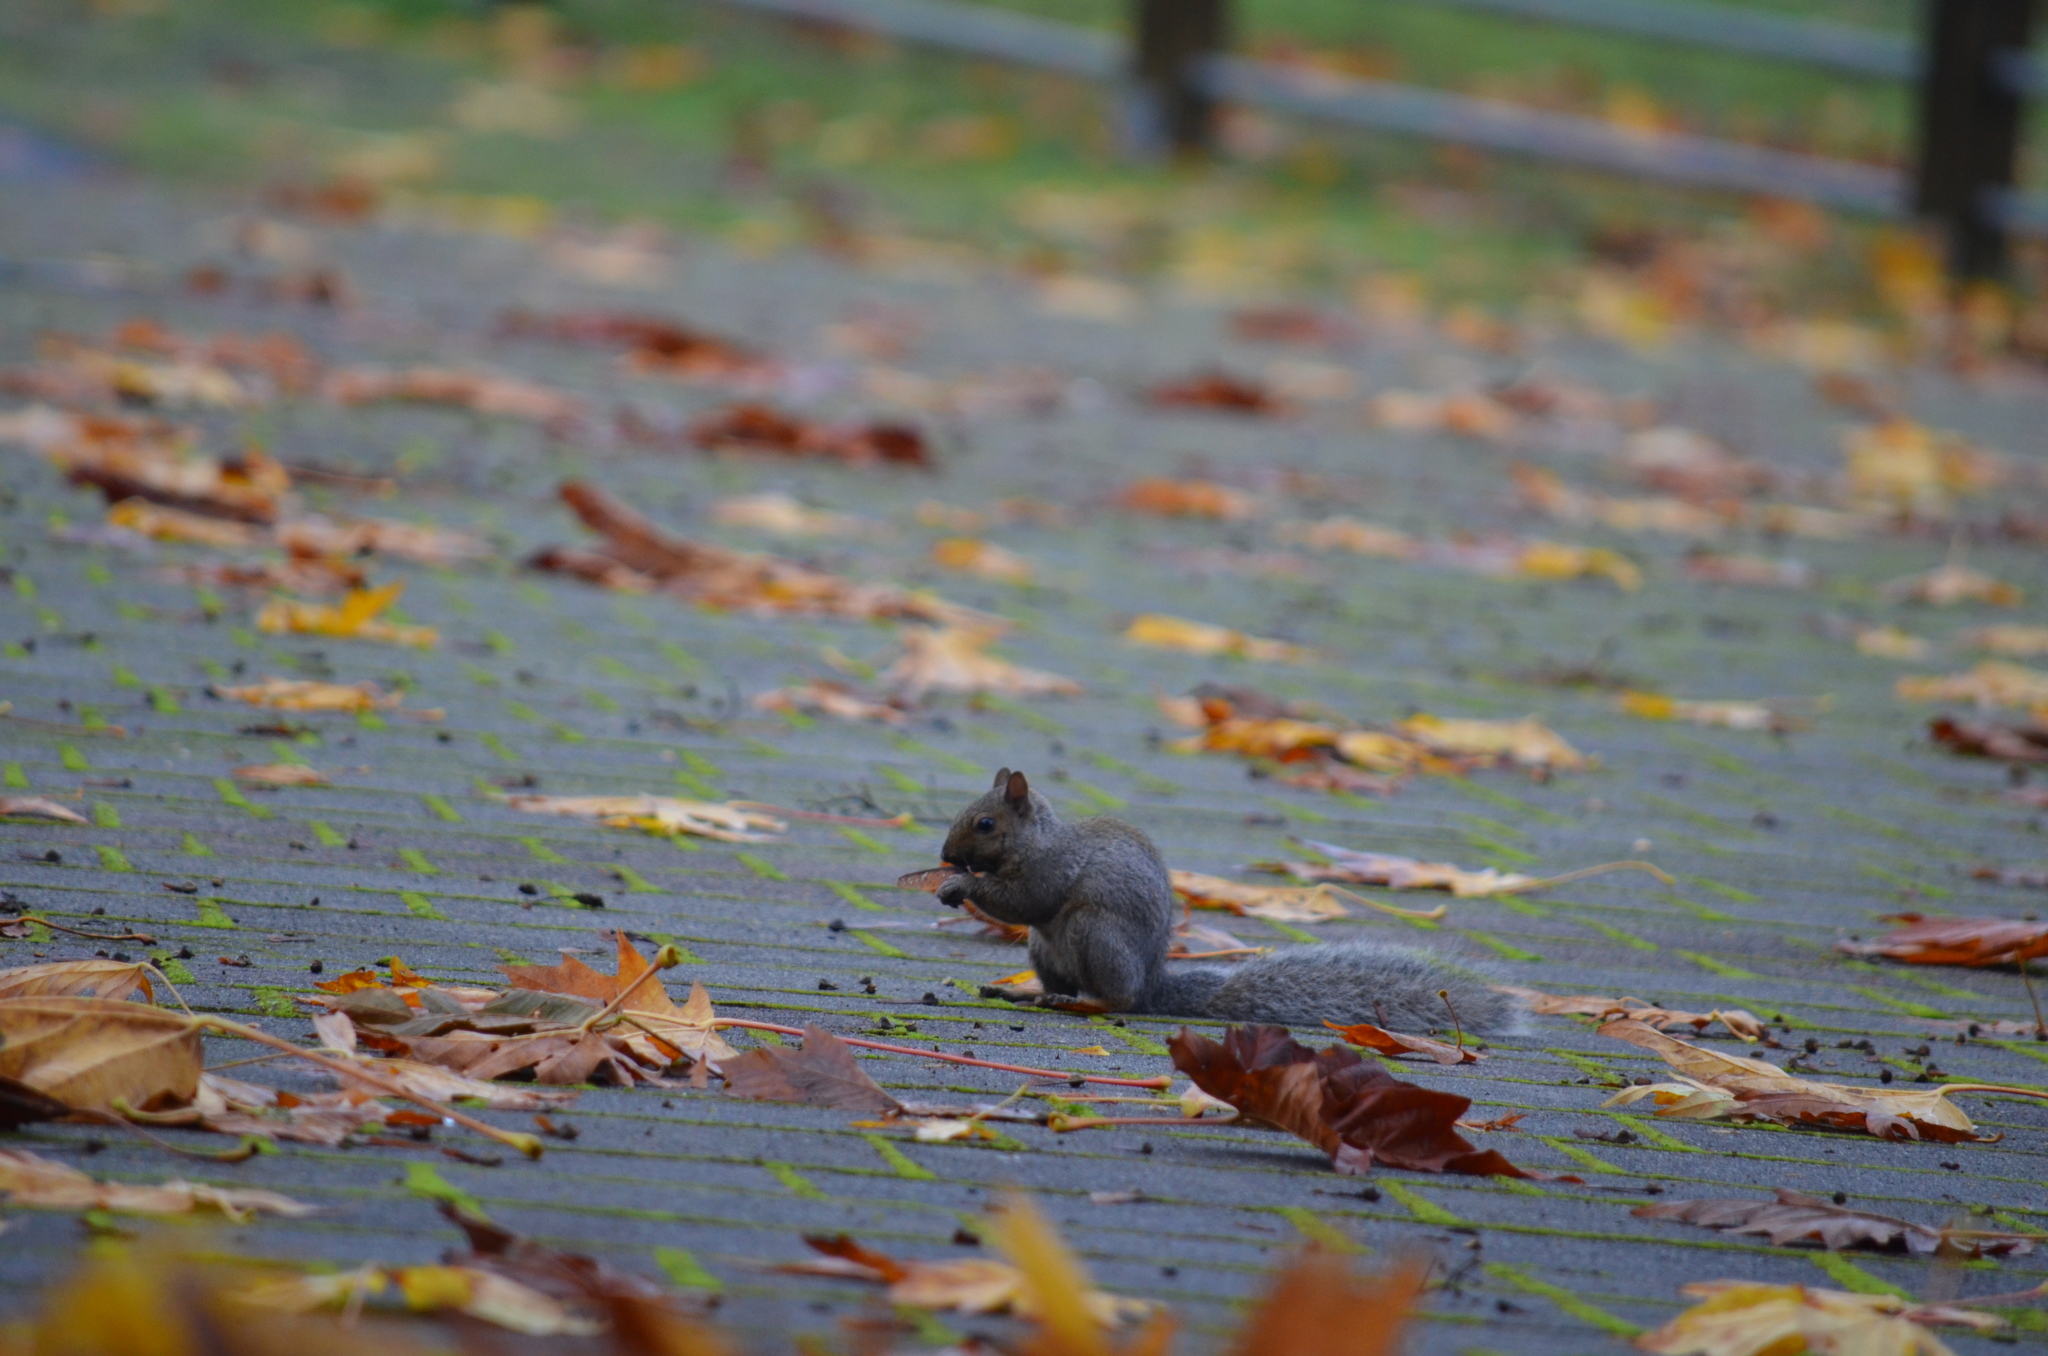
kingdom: Animalia
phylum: Chordata
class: Mammalia
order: Rodentia
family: Sciuridae
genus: Sciurus
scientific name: Sciurus carolinensis
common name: Eastern gray squirrel
